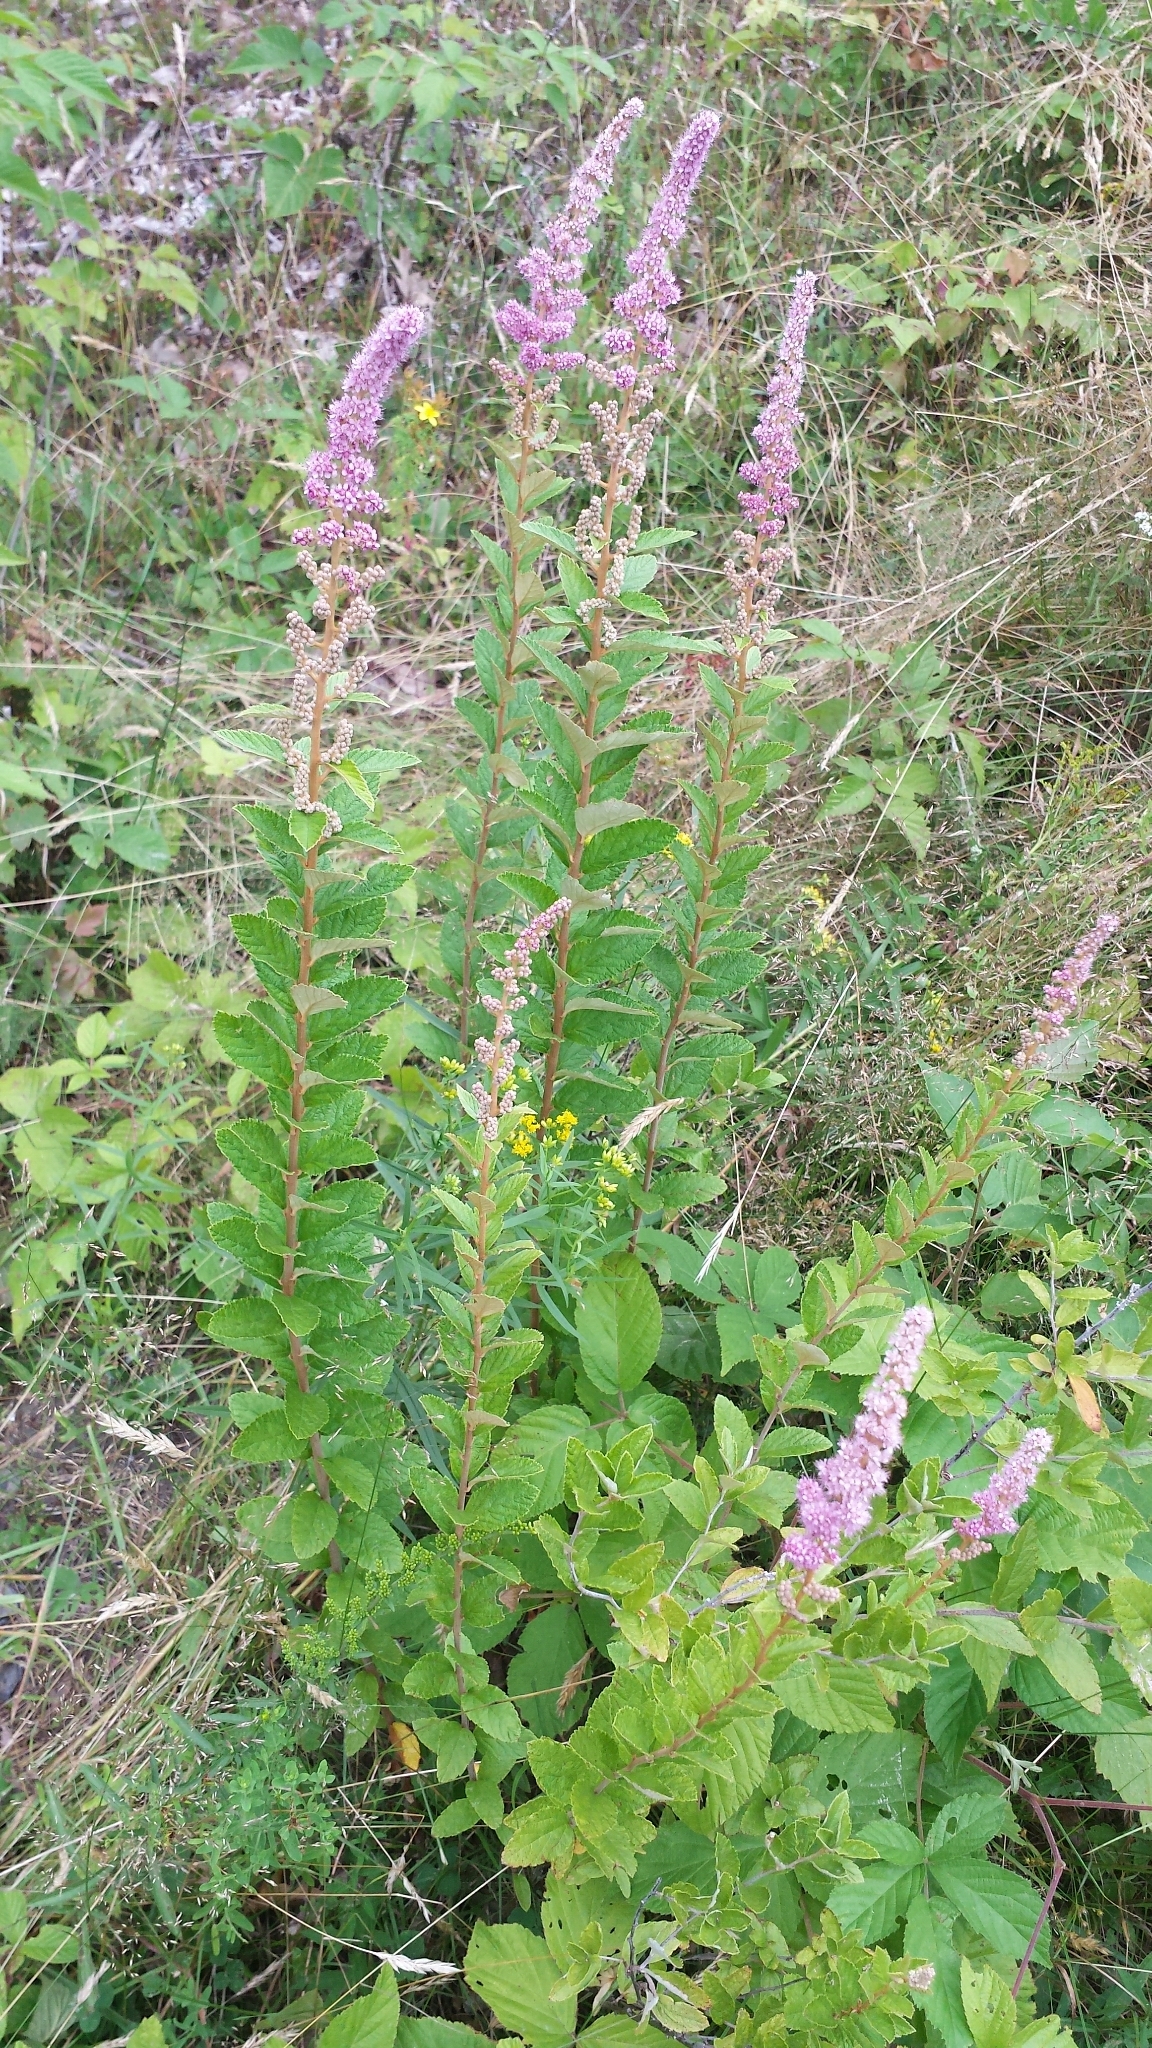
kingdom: Plantae
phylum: Tracheophyta
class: Magnoliopsida
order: Rosales
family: Rosaceae
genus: Spiraea
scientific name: Spiraea tomentosa
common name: Hardhack
